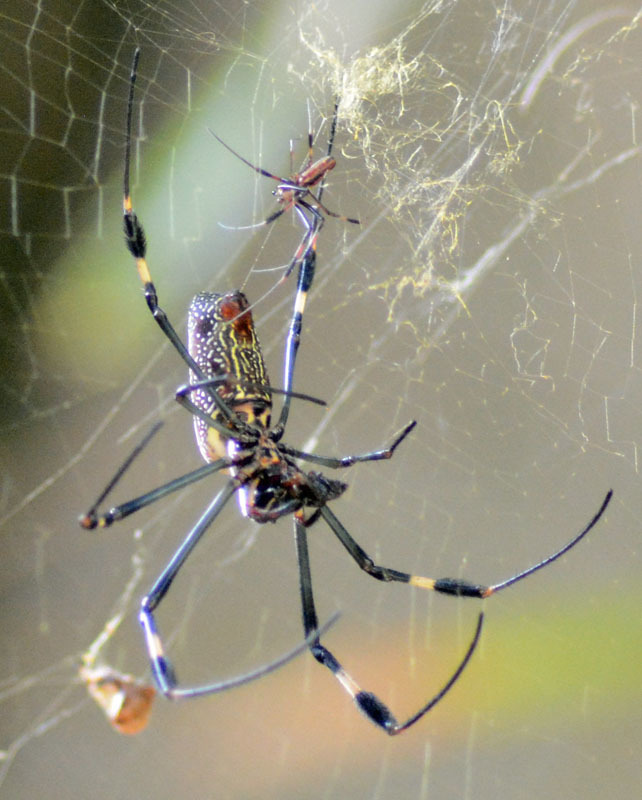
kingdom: Animalia
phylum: Arthropoda
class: Arachnida
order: Araneae
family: Araneidae
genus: Trichonephila
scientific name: Trichonephila clavipes
